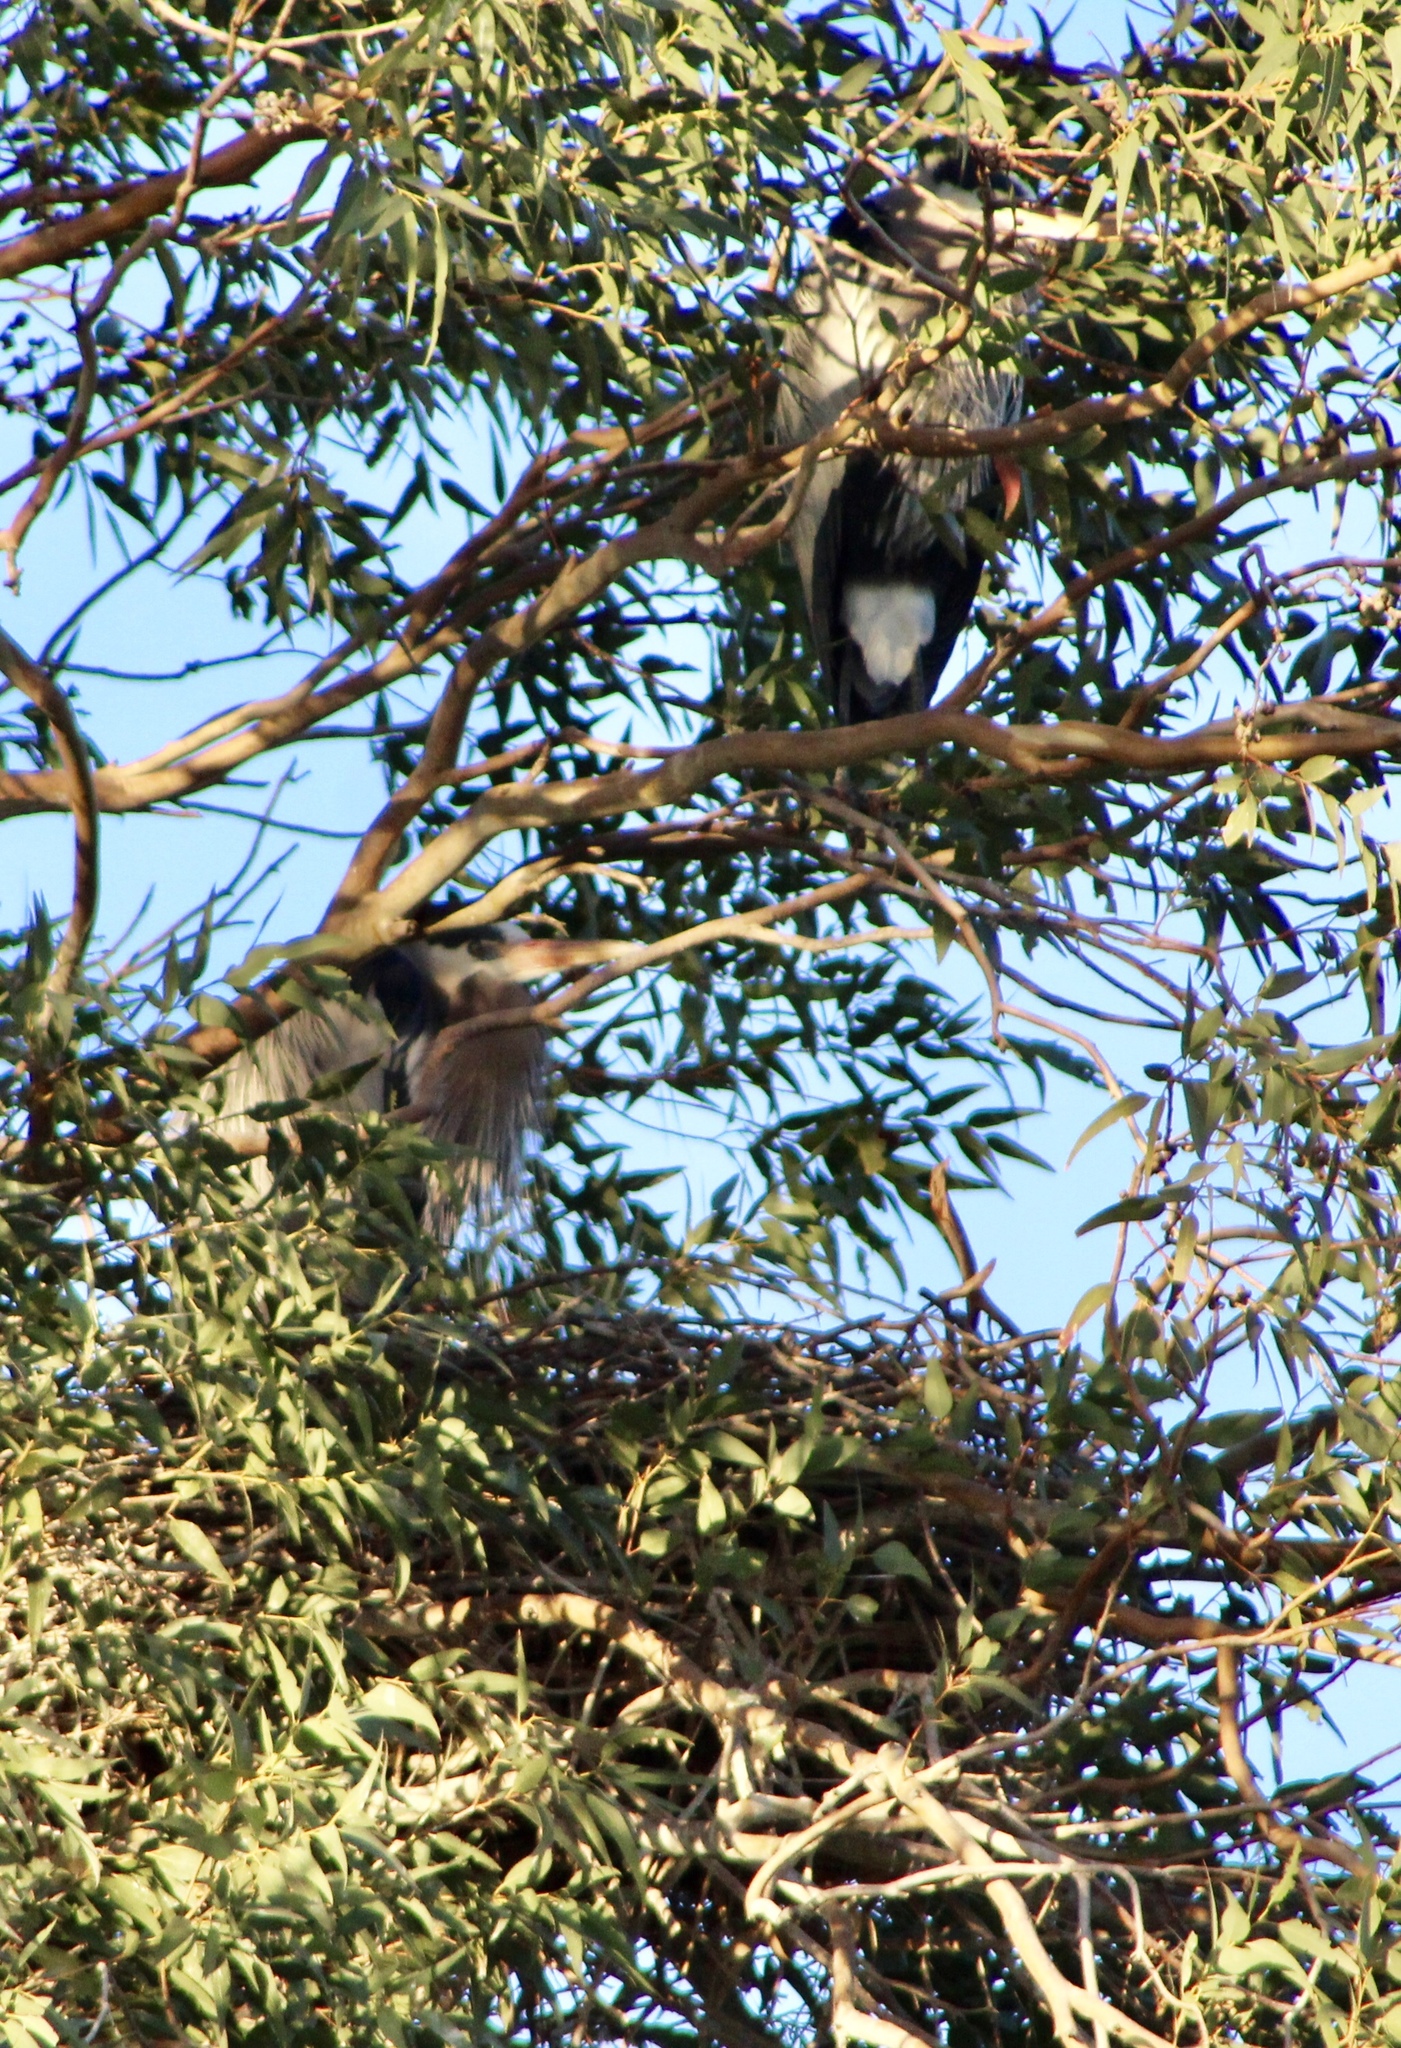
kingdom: Animalia
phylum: Chordata
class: Aves
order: Pelecaniformes
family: Ardeidae
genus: Ardea
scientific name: Ardea herodias
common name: Great blue heron
